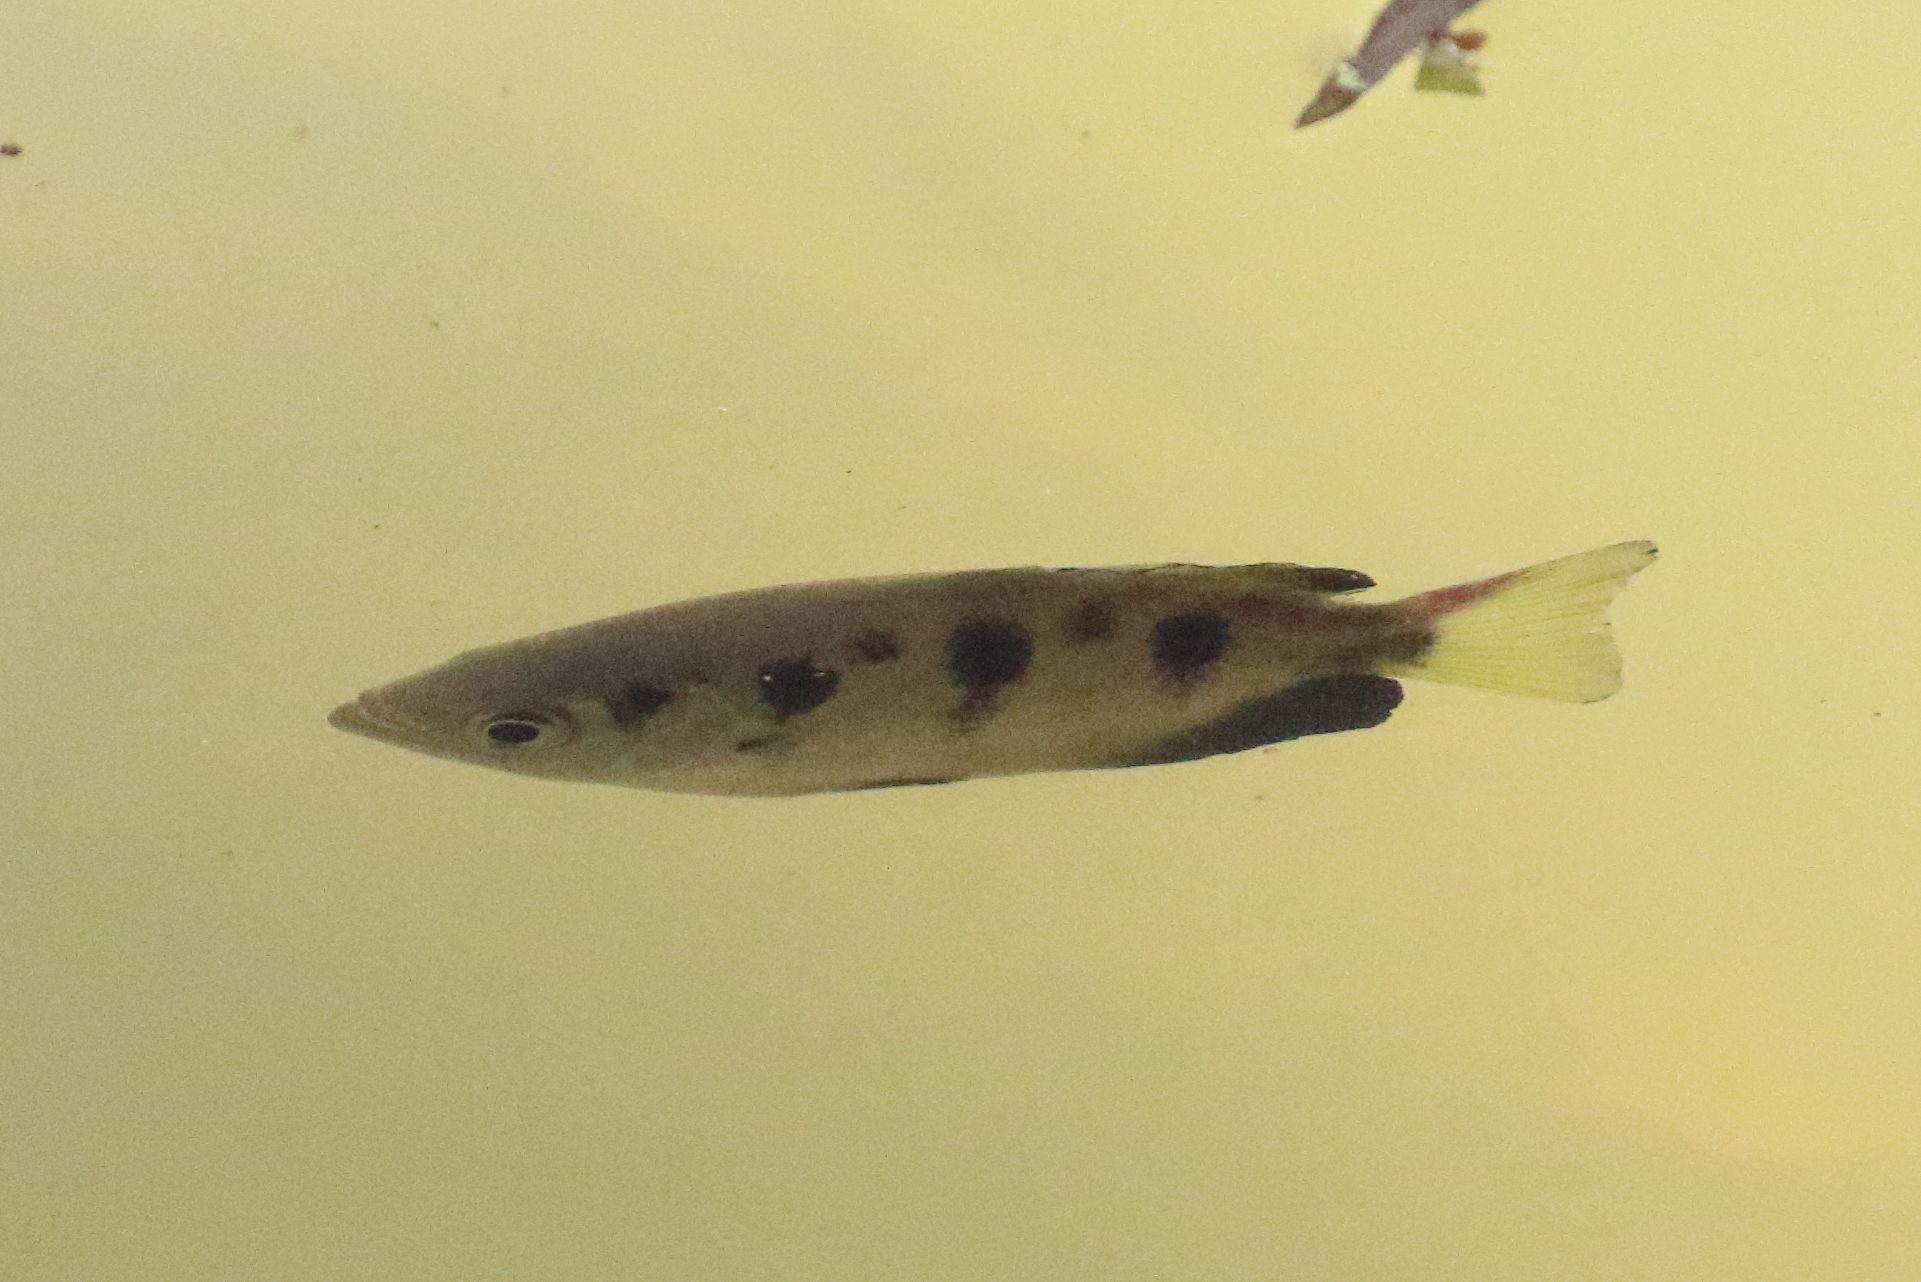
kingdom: Animalia
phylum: Chordata
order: Perciformes
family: Toxotidae
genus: Toxotes
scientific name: Toxotes chatareus
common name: Spotted archerfish
